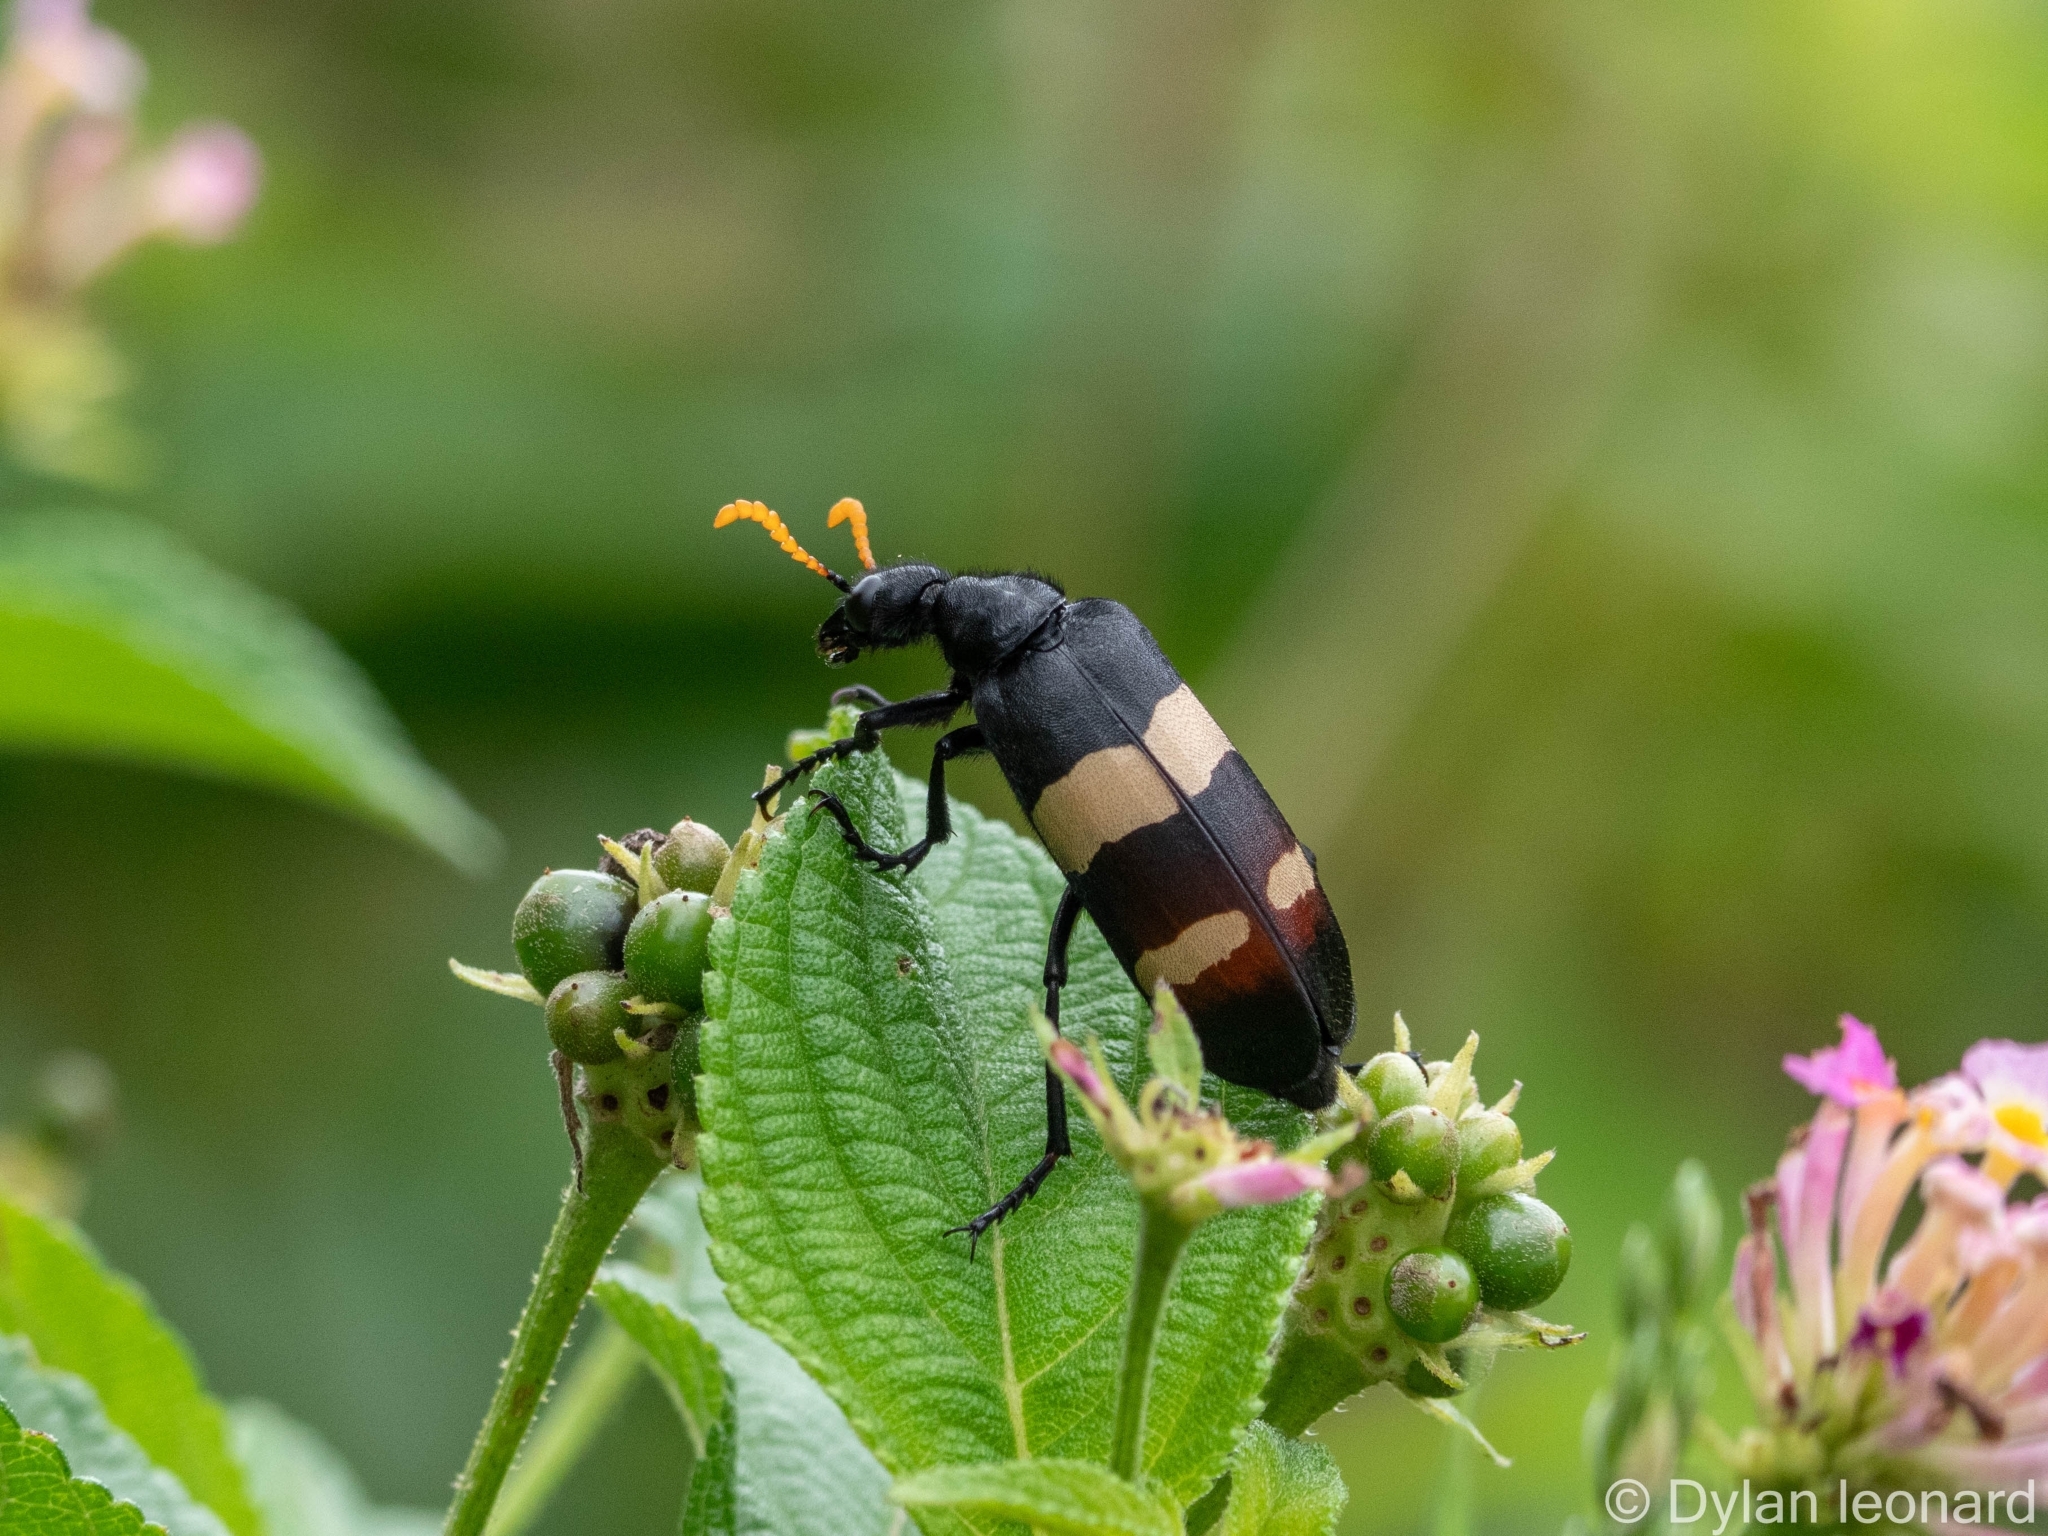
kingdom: Animalia
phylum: Arthropoda
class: Insecta
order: Coleoptera
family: Meloidae
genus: Hycleus
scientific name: Hycleus
